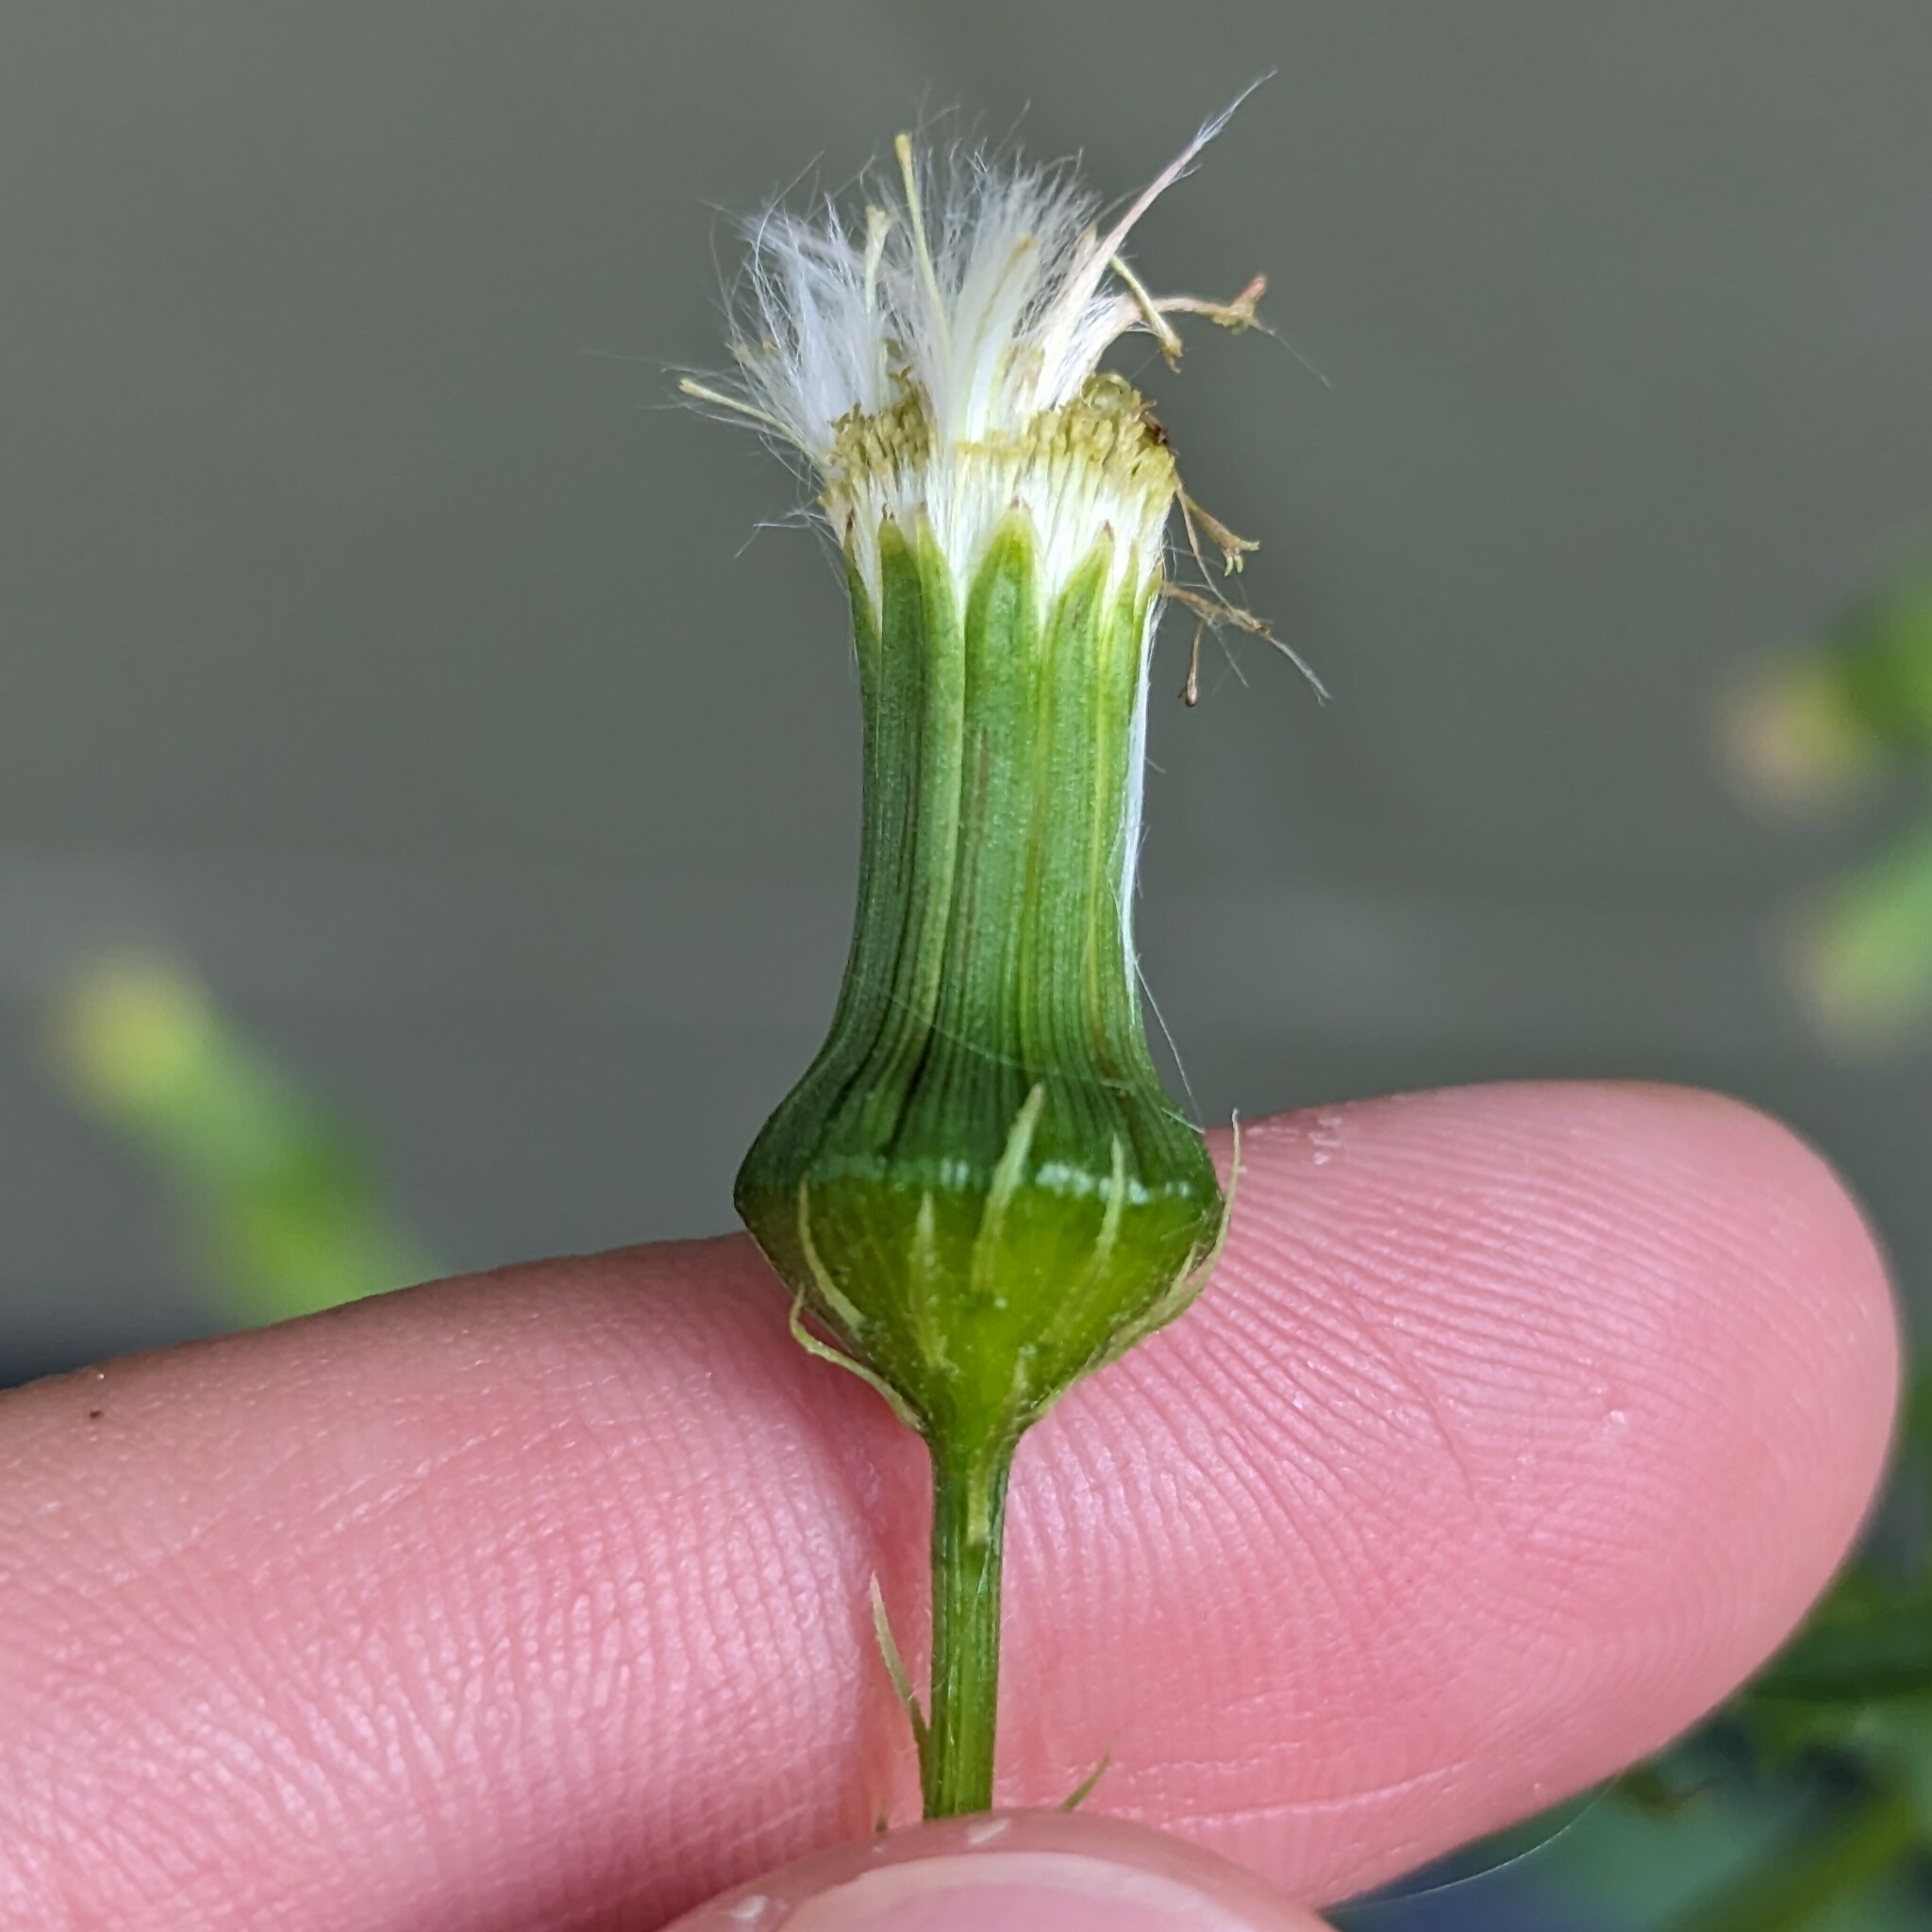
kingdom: Plantae
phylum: Tracheophyta
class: Magnoliopsida
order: Asterales
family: Asteraceae
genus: Erechtites
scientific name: Erechtites hieraciifolius
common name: American burnweed
